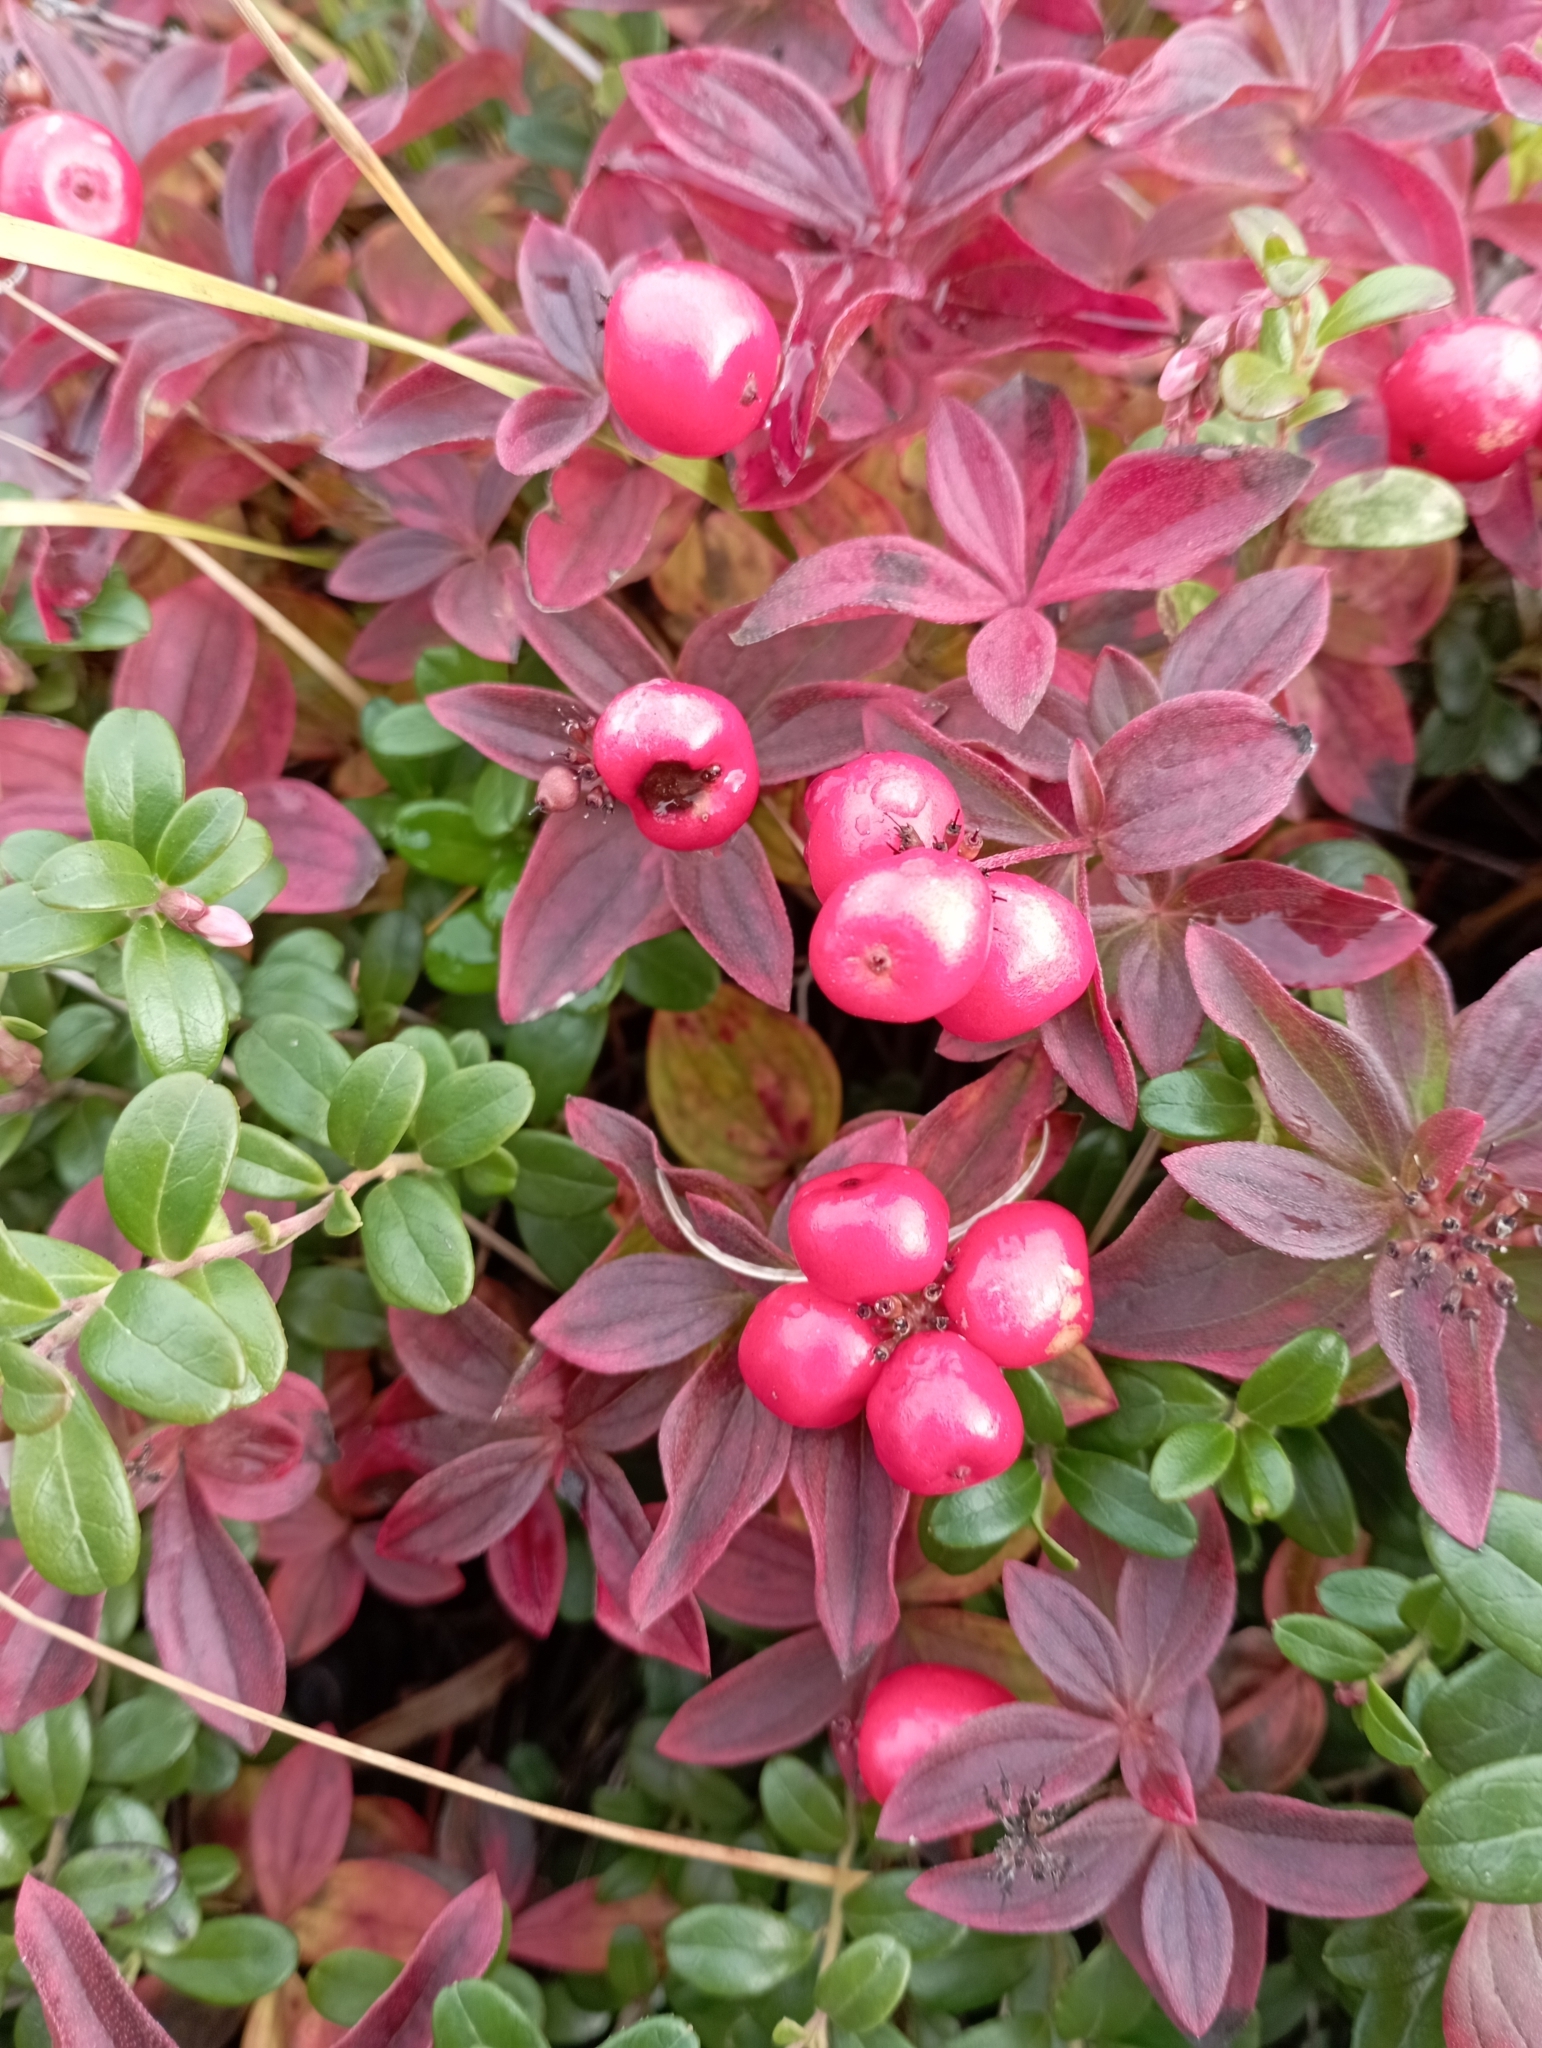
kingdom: Plantae
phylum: Tracheophyta
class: Magnoliopsida
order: Cornales
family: Cornaceae
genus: Cornus
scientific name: Cornus suecica
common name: Dwarf cornel
